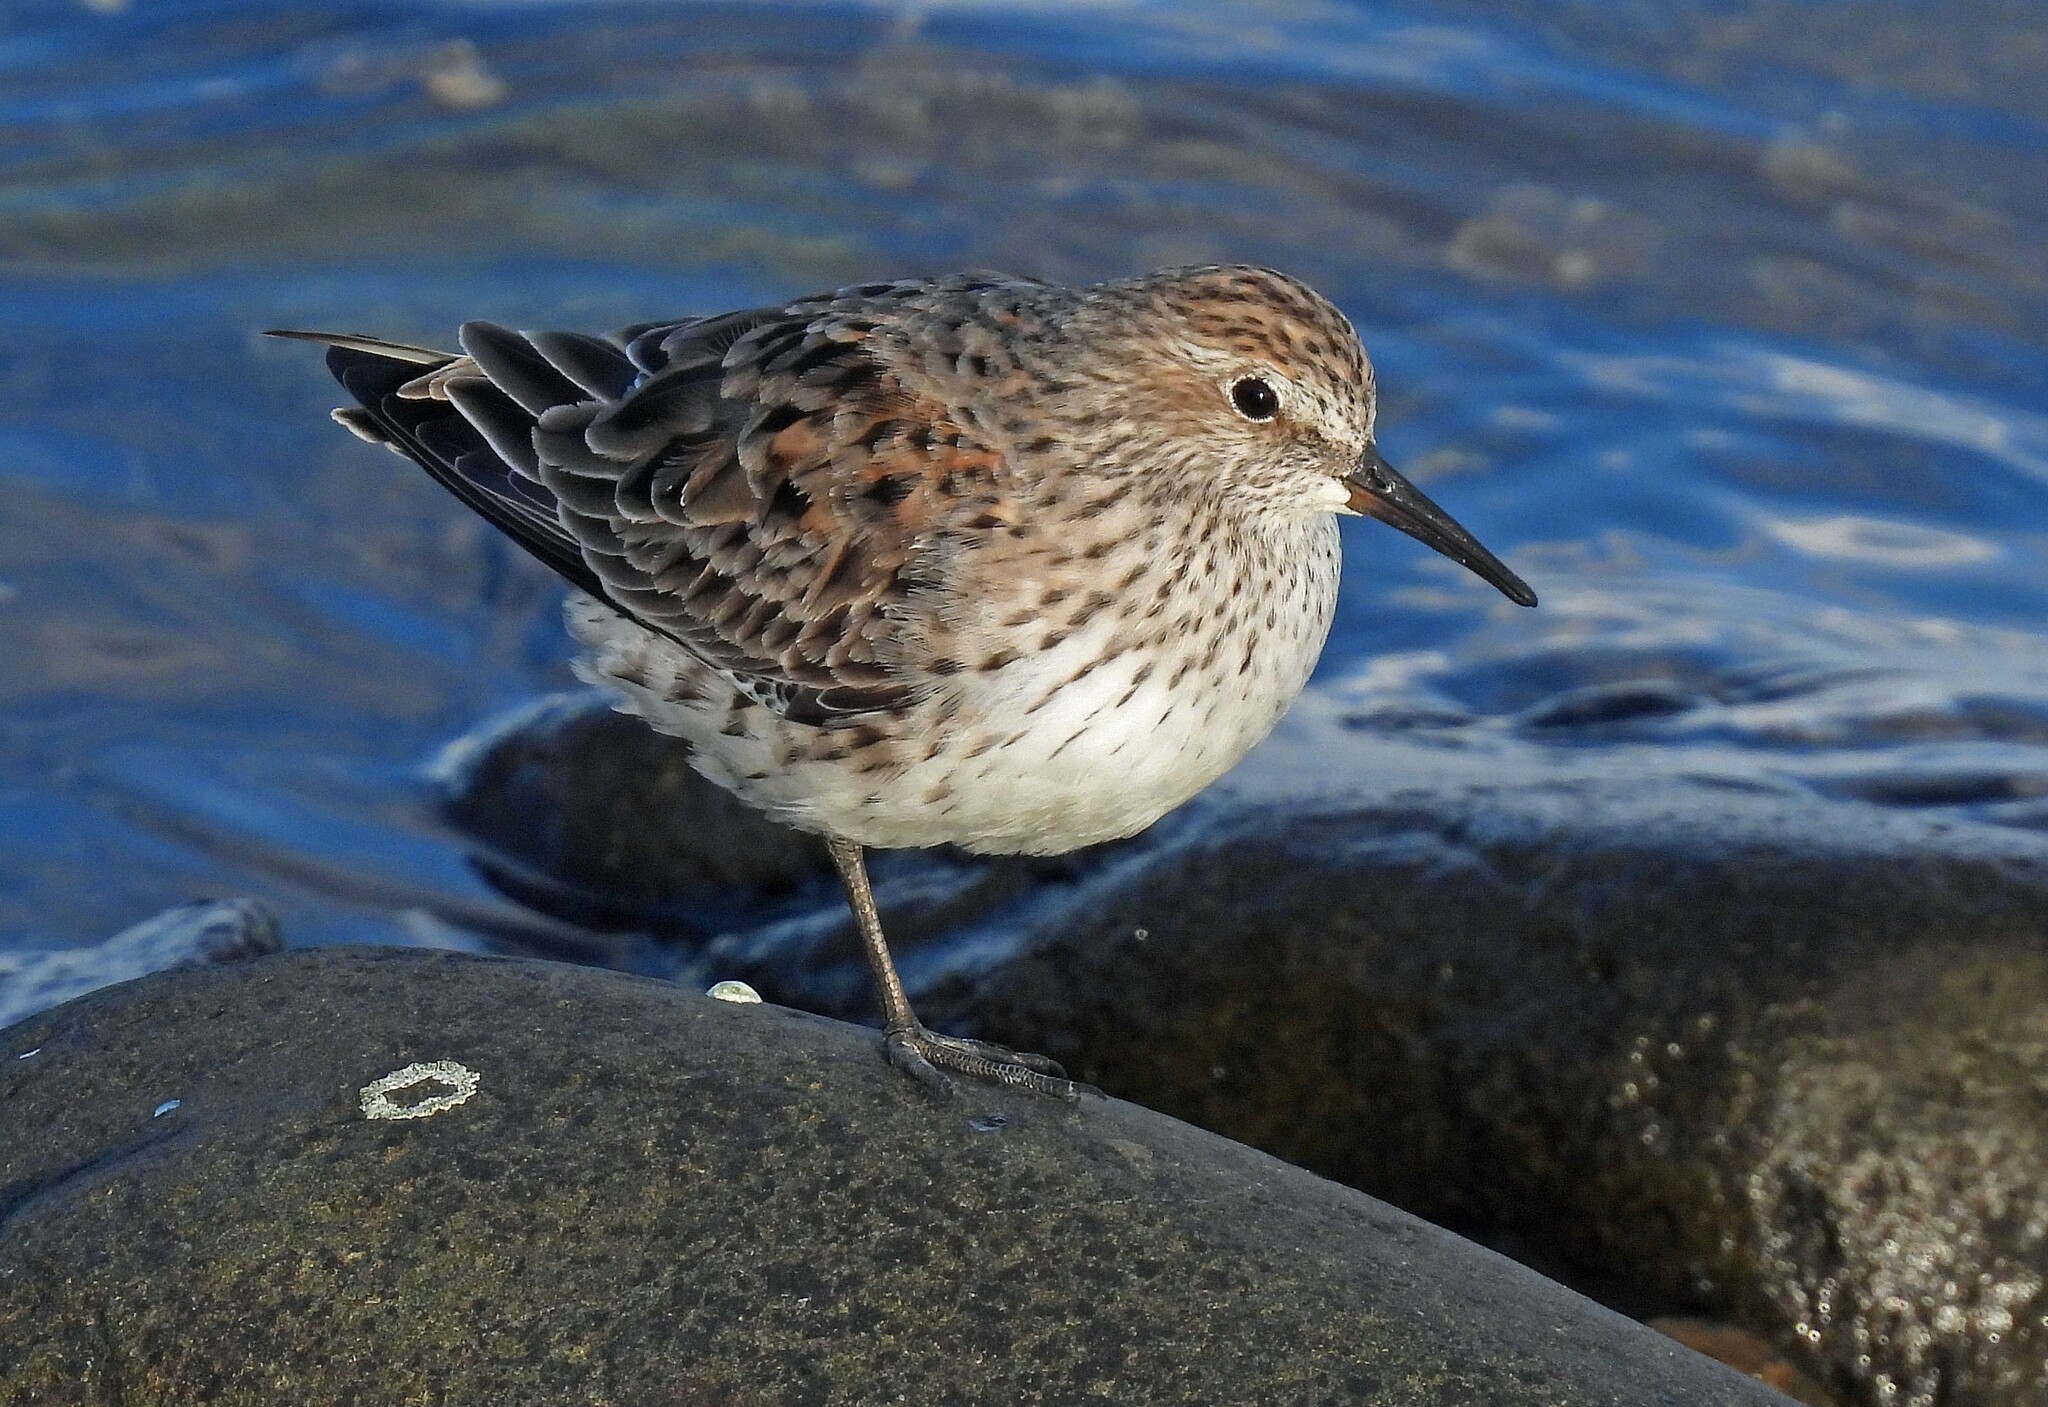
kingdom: Animalia
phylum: Chordata
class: Aves
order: Charadriiformes
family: Scolopacidae
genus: Calidris
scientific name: Calidris fuscicollis
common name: White-rumped sandpiper
